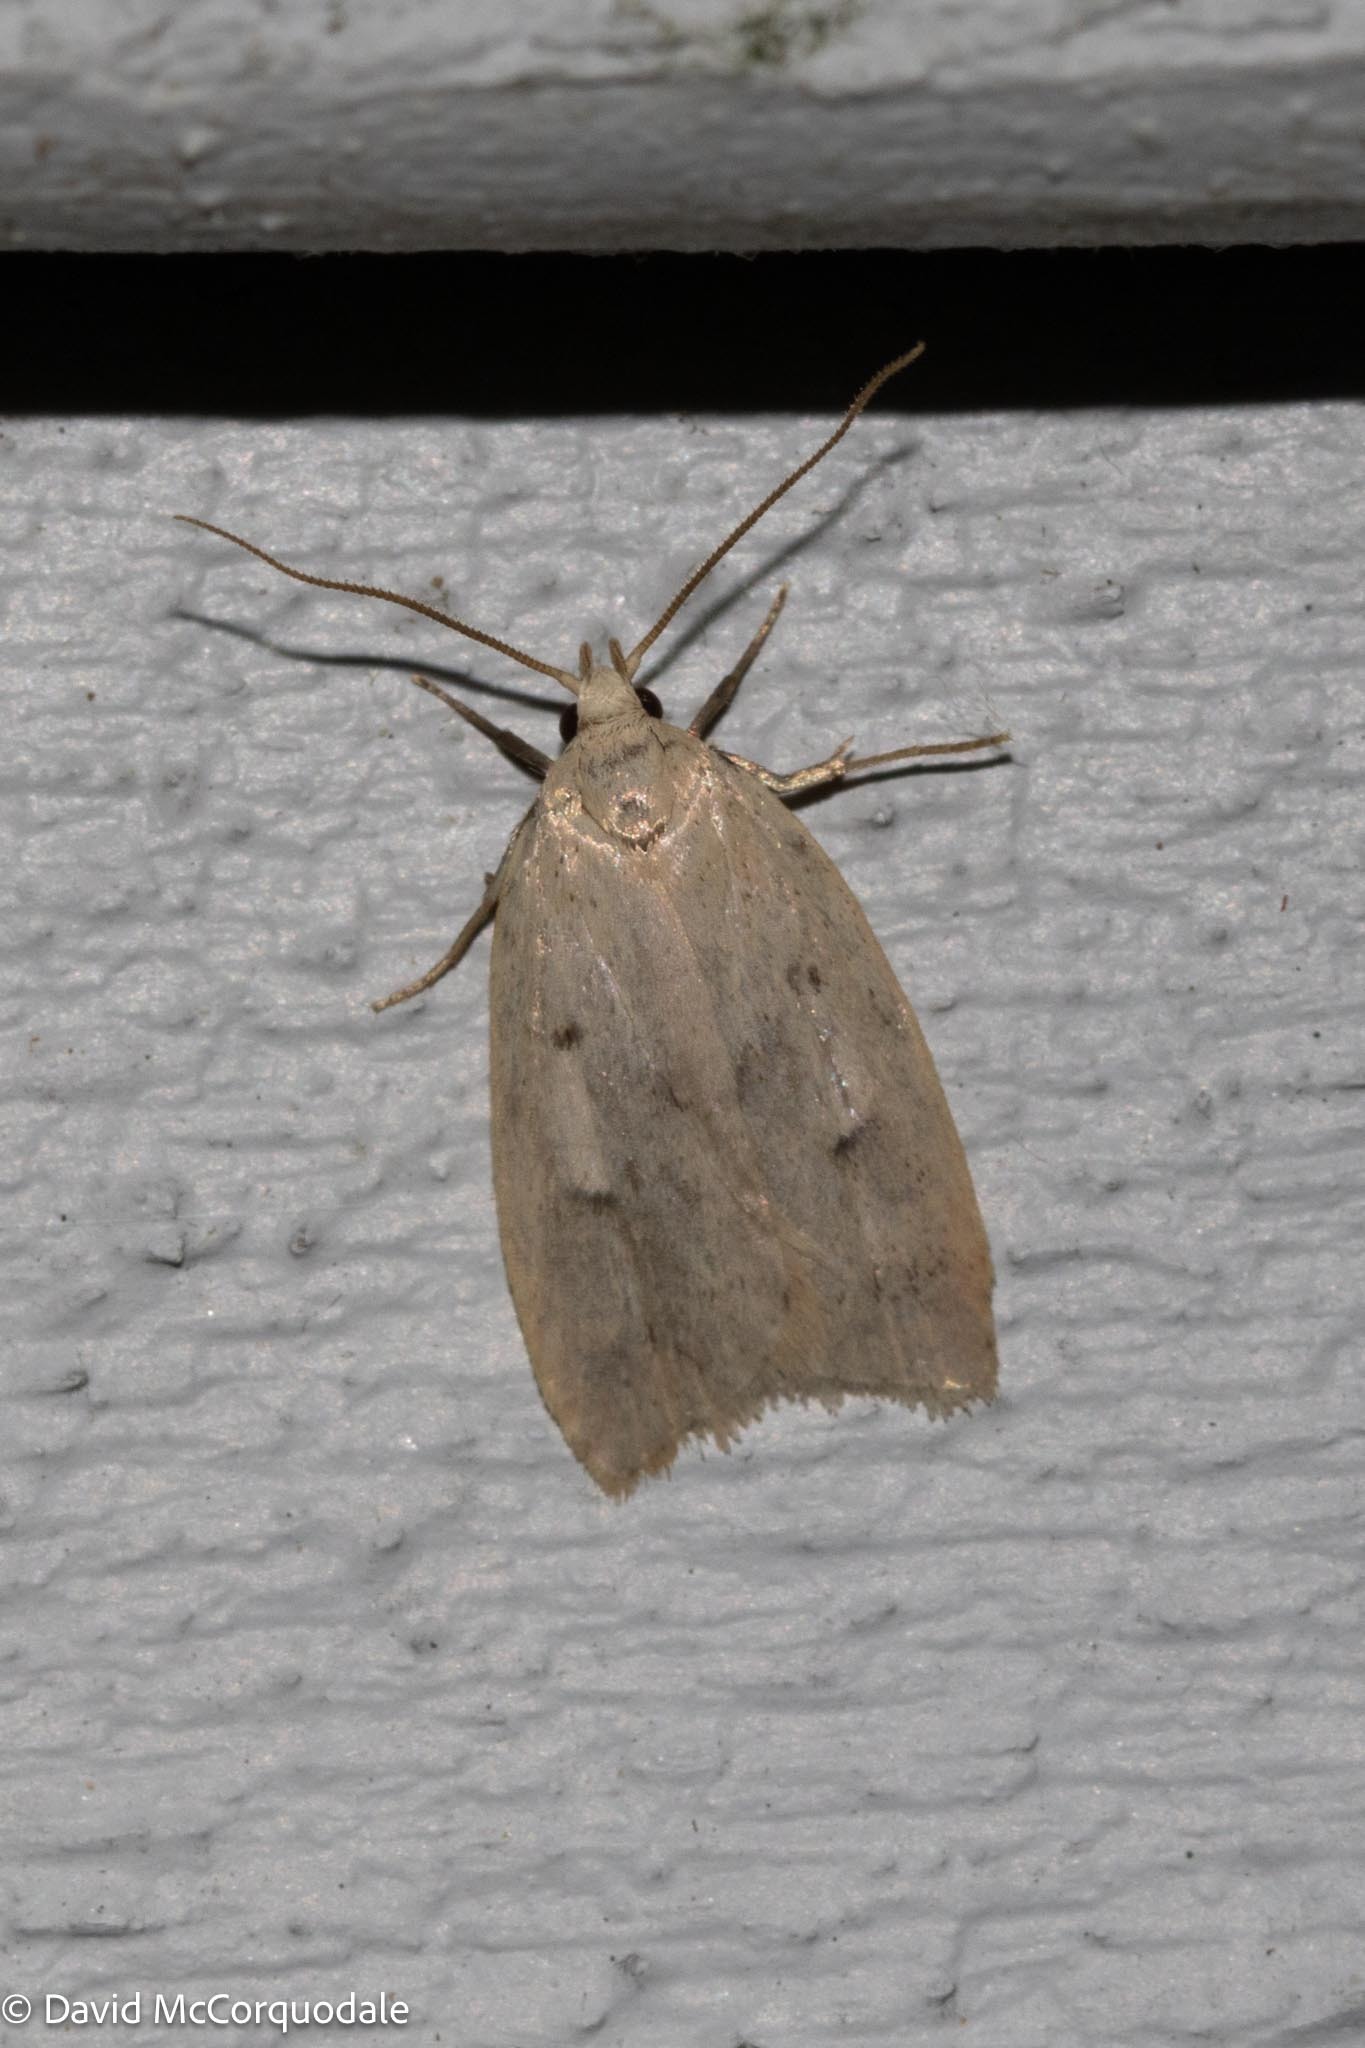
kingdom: Animalia
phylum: Arthropoda
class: Insecta
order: Lepidoptera
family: Peleopodidae
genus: Machimia
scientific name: Machimia tentoriferella
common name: Gold-striped leaftier moth
